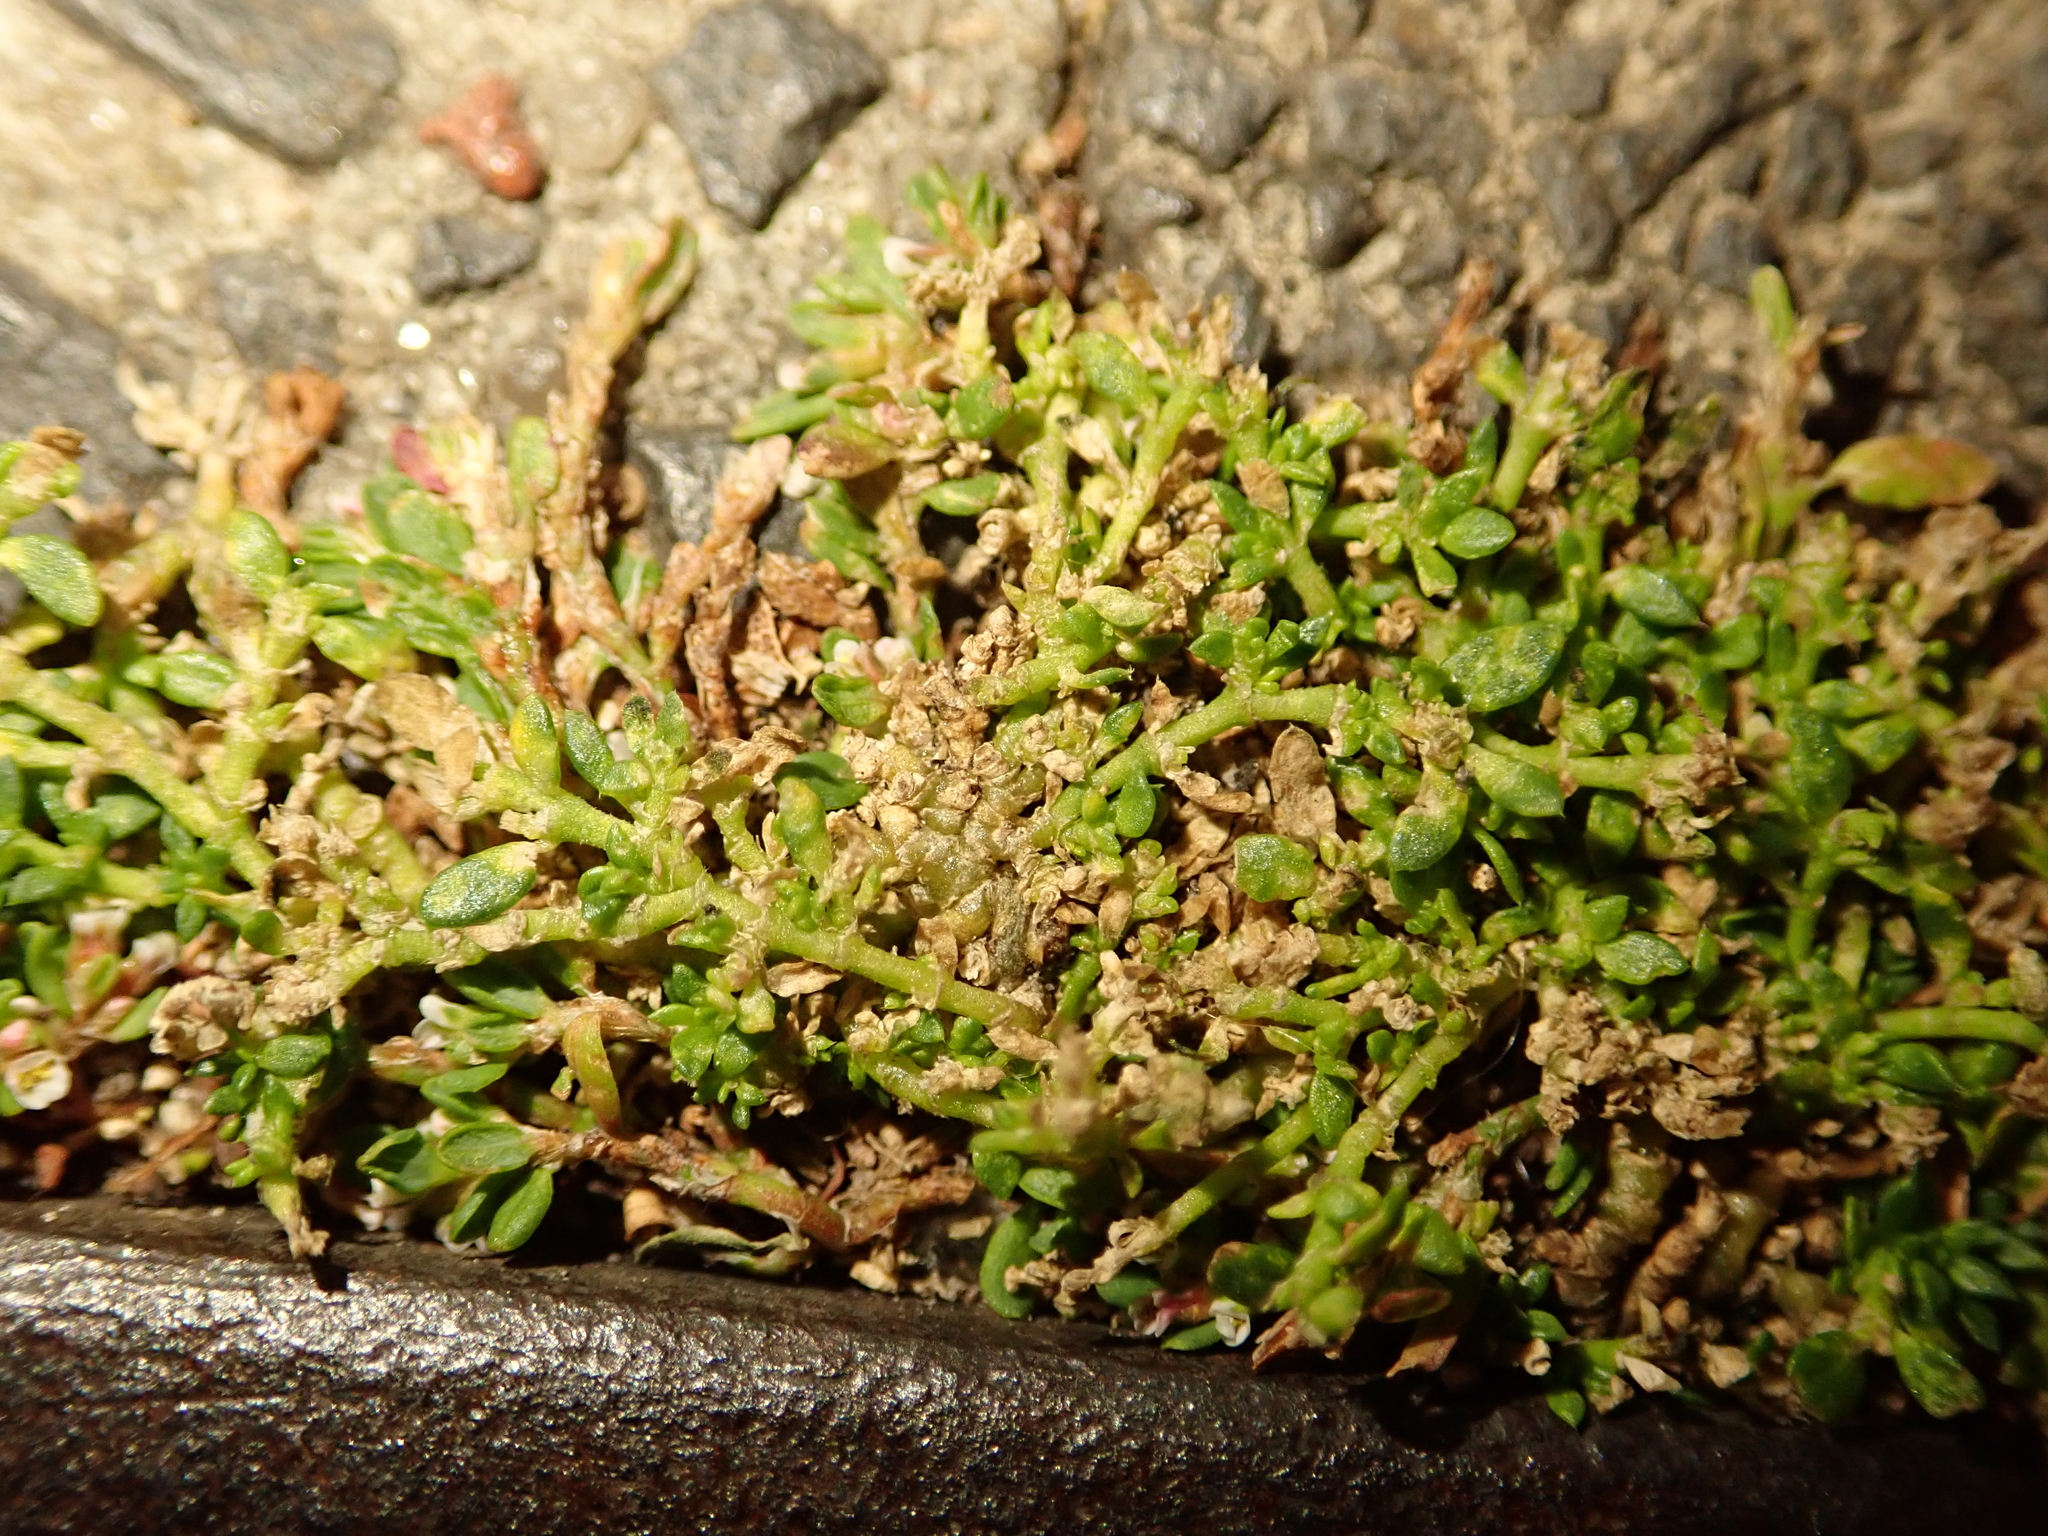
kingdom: Plantae
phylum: Tracheophyta
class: Magnoliopsida
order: Caryophyllales
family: Caryophyllaceae
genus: Herniaria
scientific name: Herniaria glabra
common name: Smooth rupturewort
